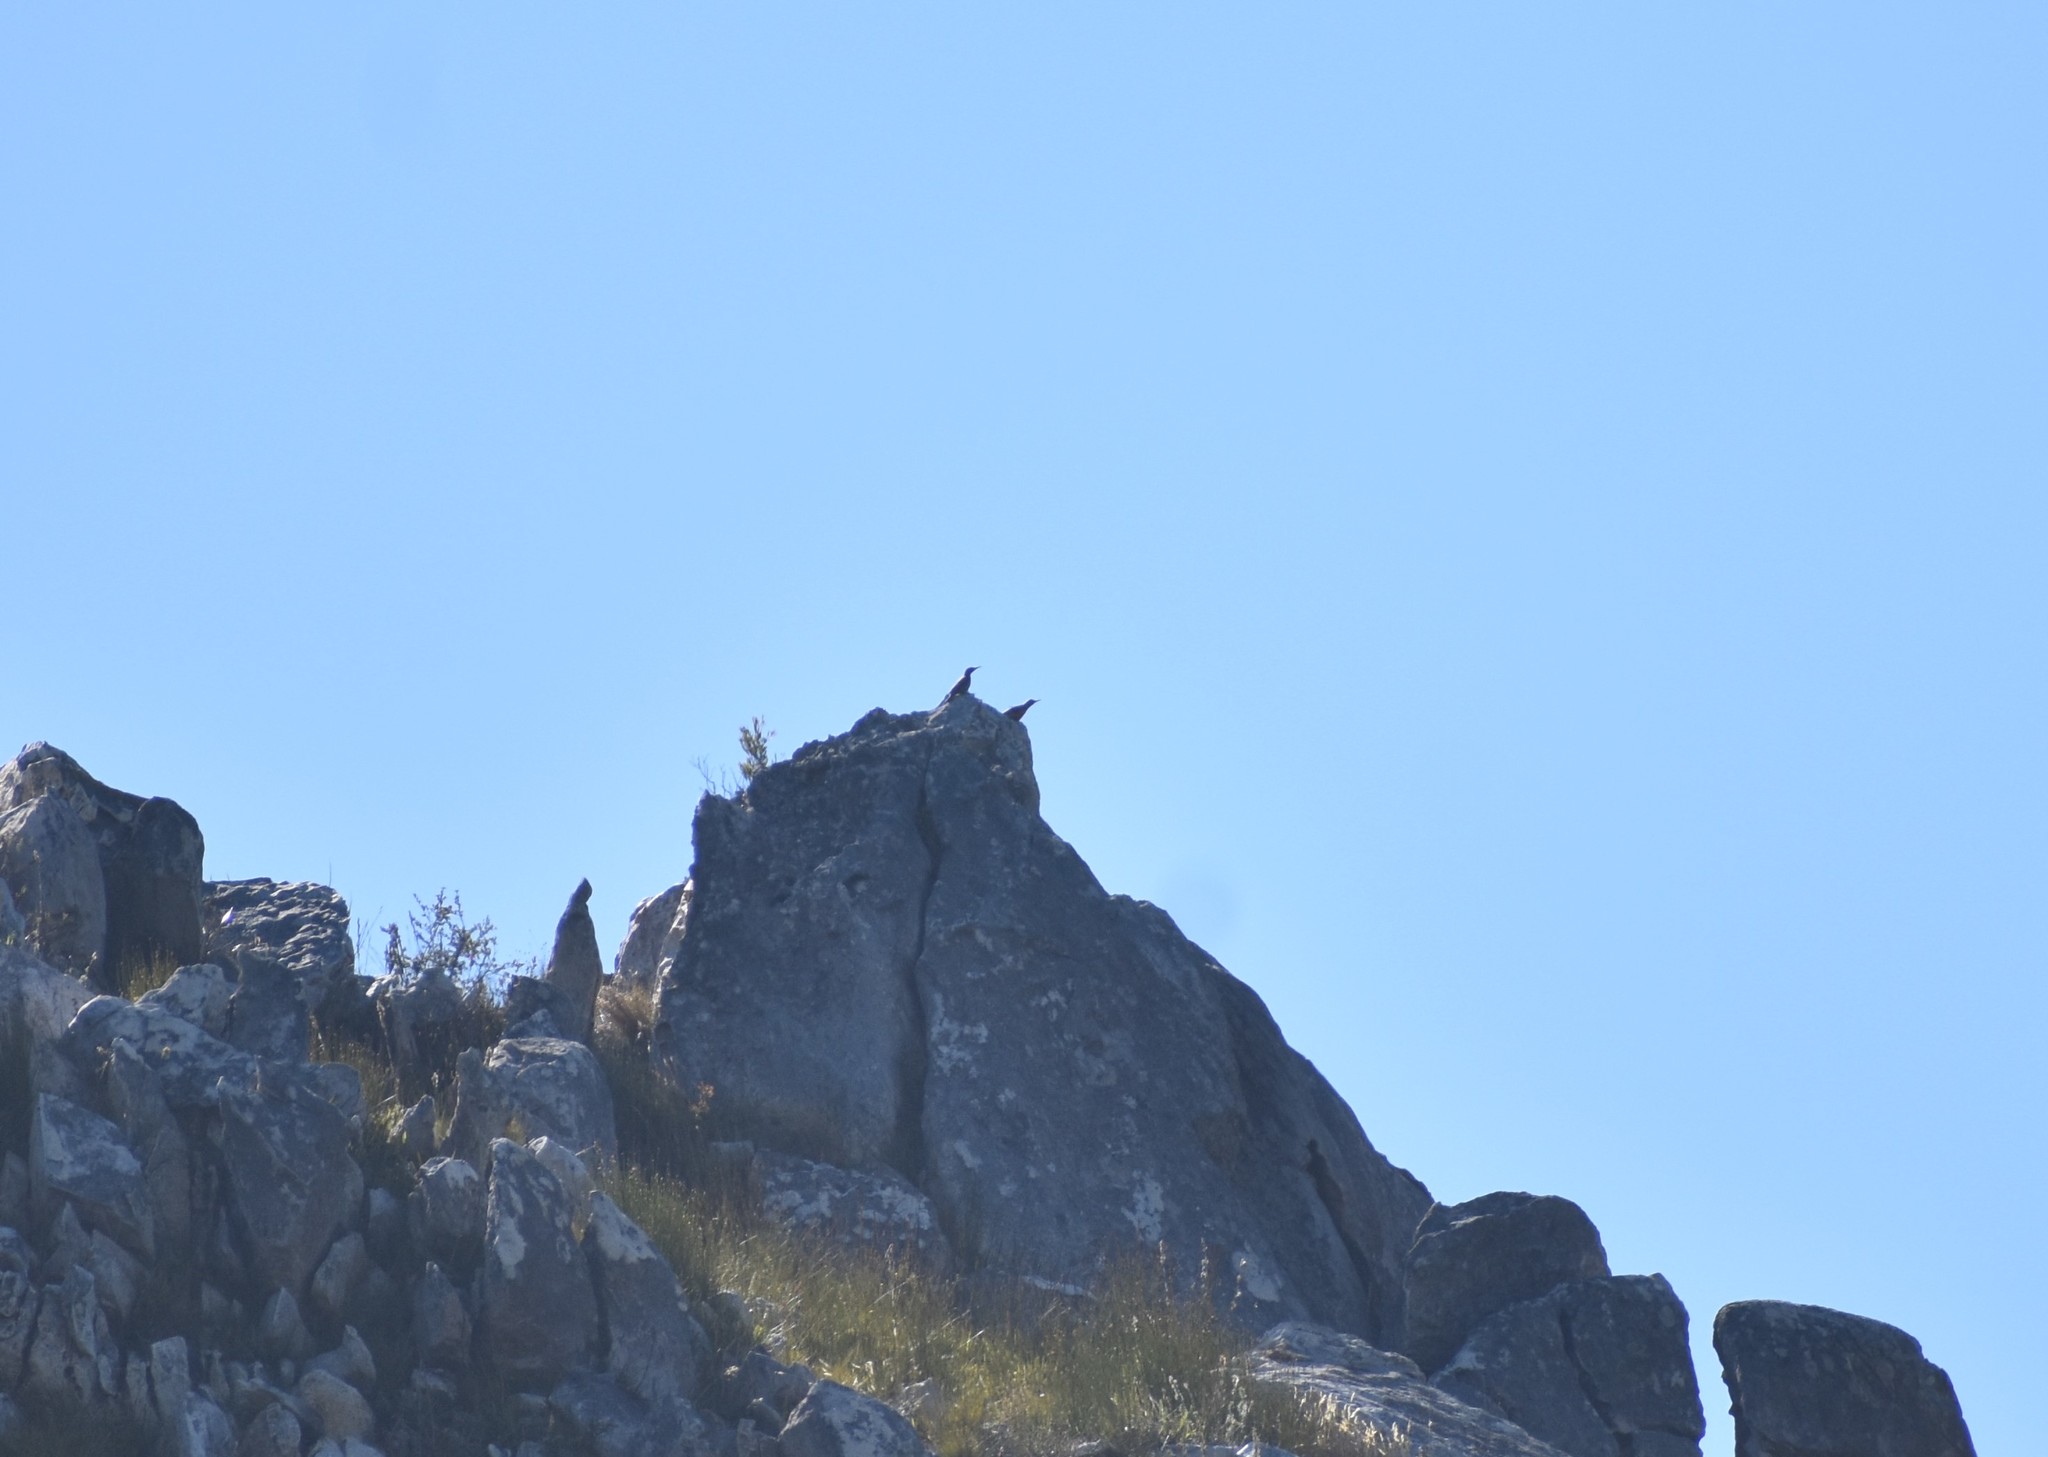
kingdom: Animalia
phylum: Chordata
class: Aves
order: Piciformes
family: Picidae
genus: Geocolaptes
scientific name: Geocolaptes olivaceus
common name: Ground woodpecker
